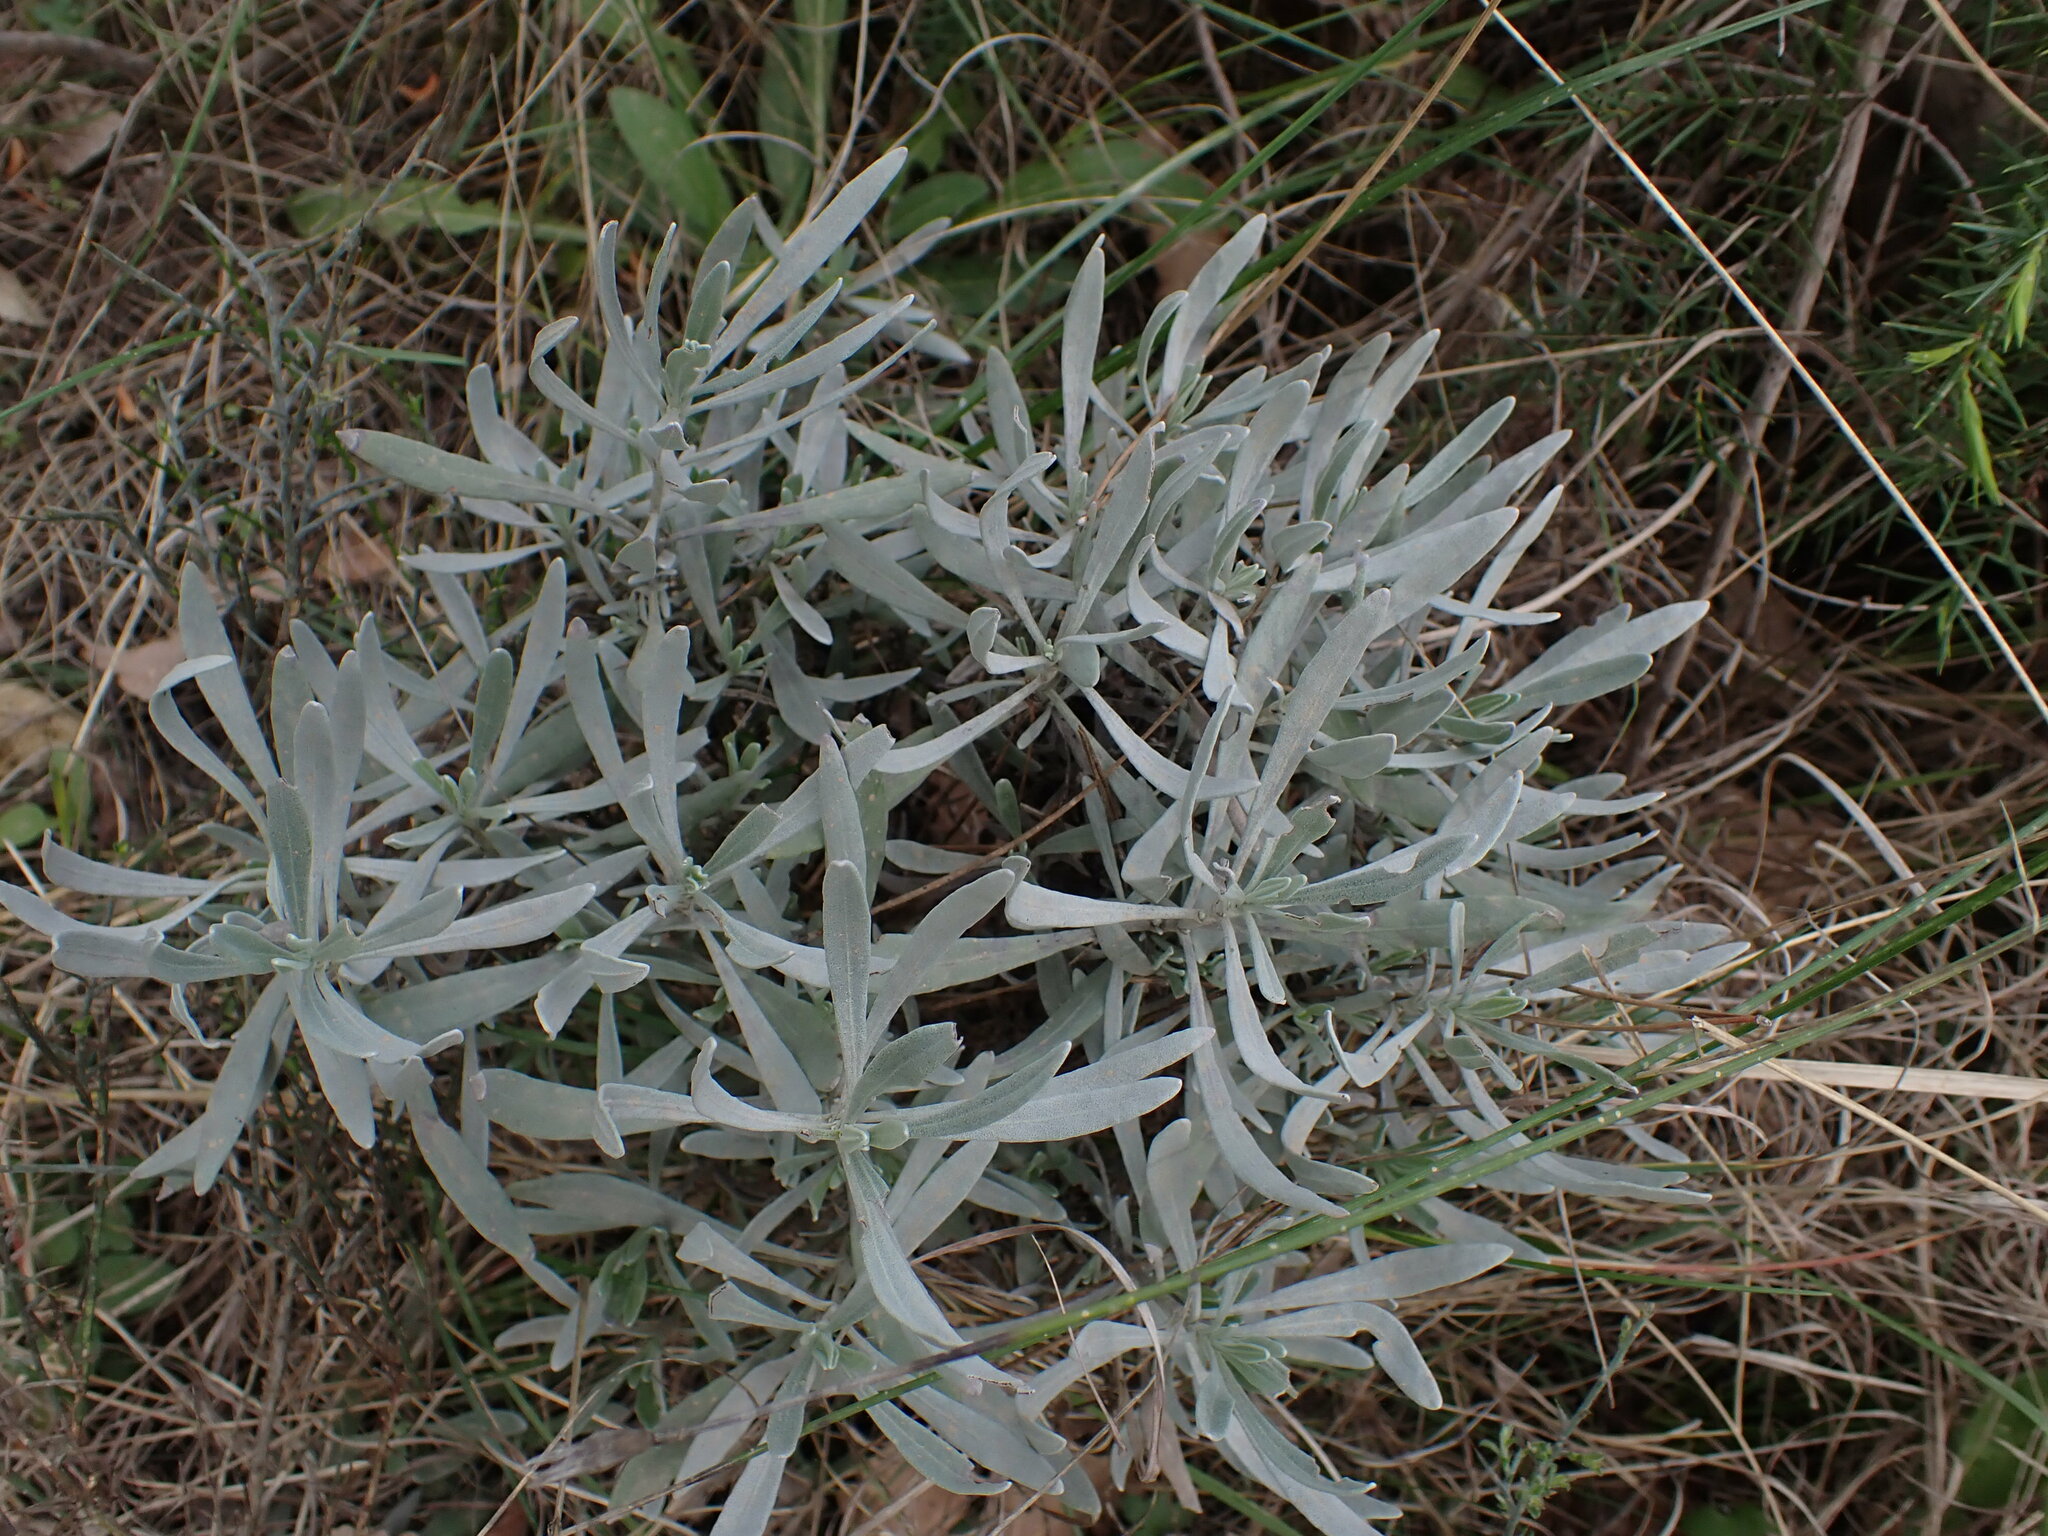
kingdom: Plantae
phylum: Tracheophyta
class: Magnoliopsida
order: Lamiales
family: Lamiaceae
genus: Lavandula
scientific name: Lavandula latifolia
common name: Spike lavendar
